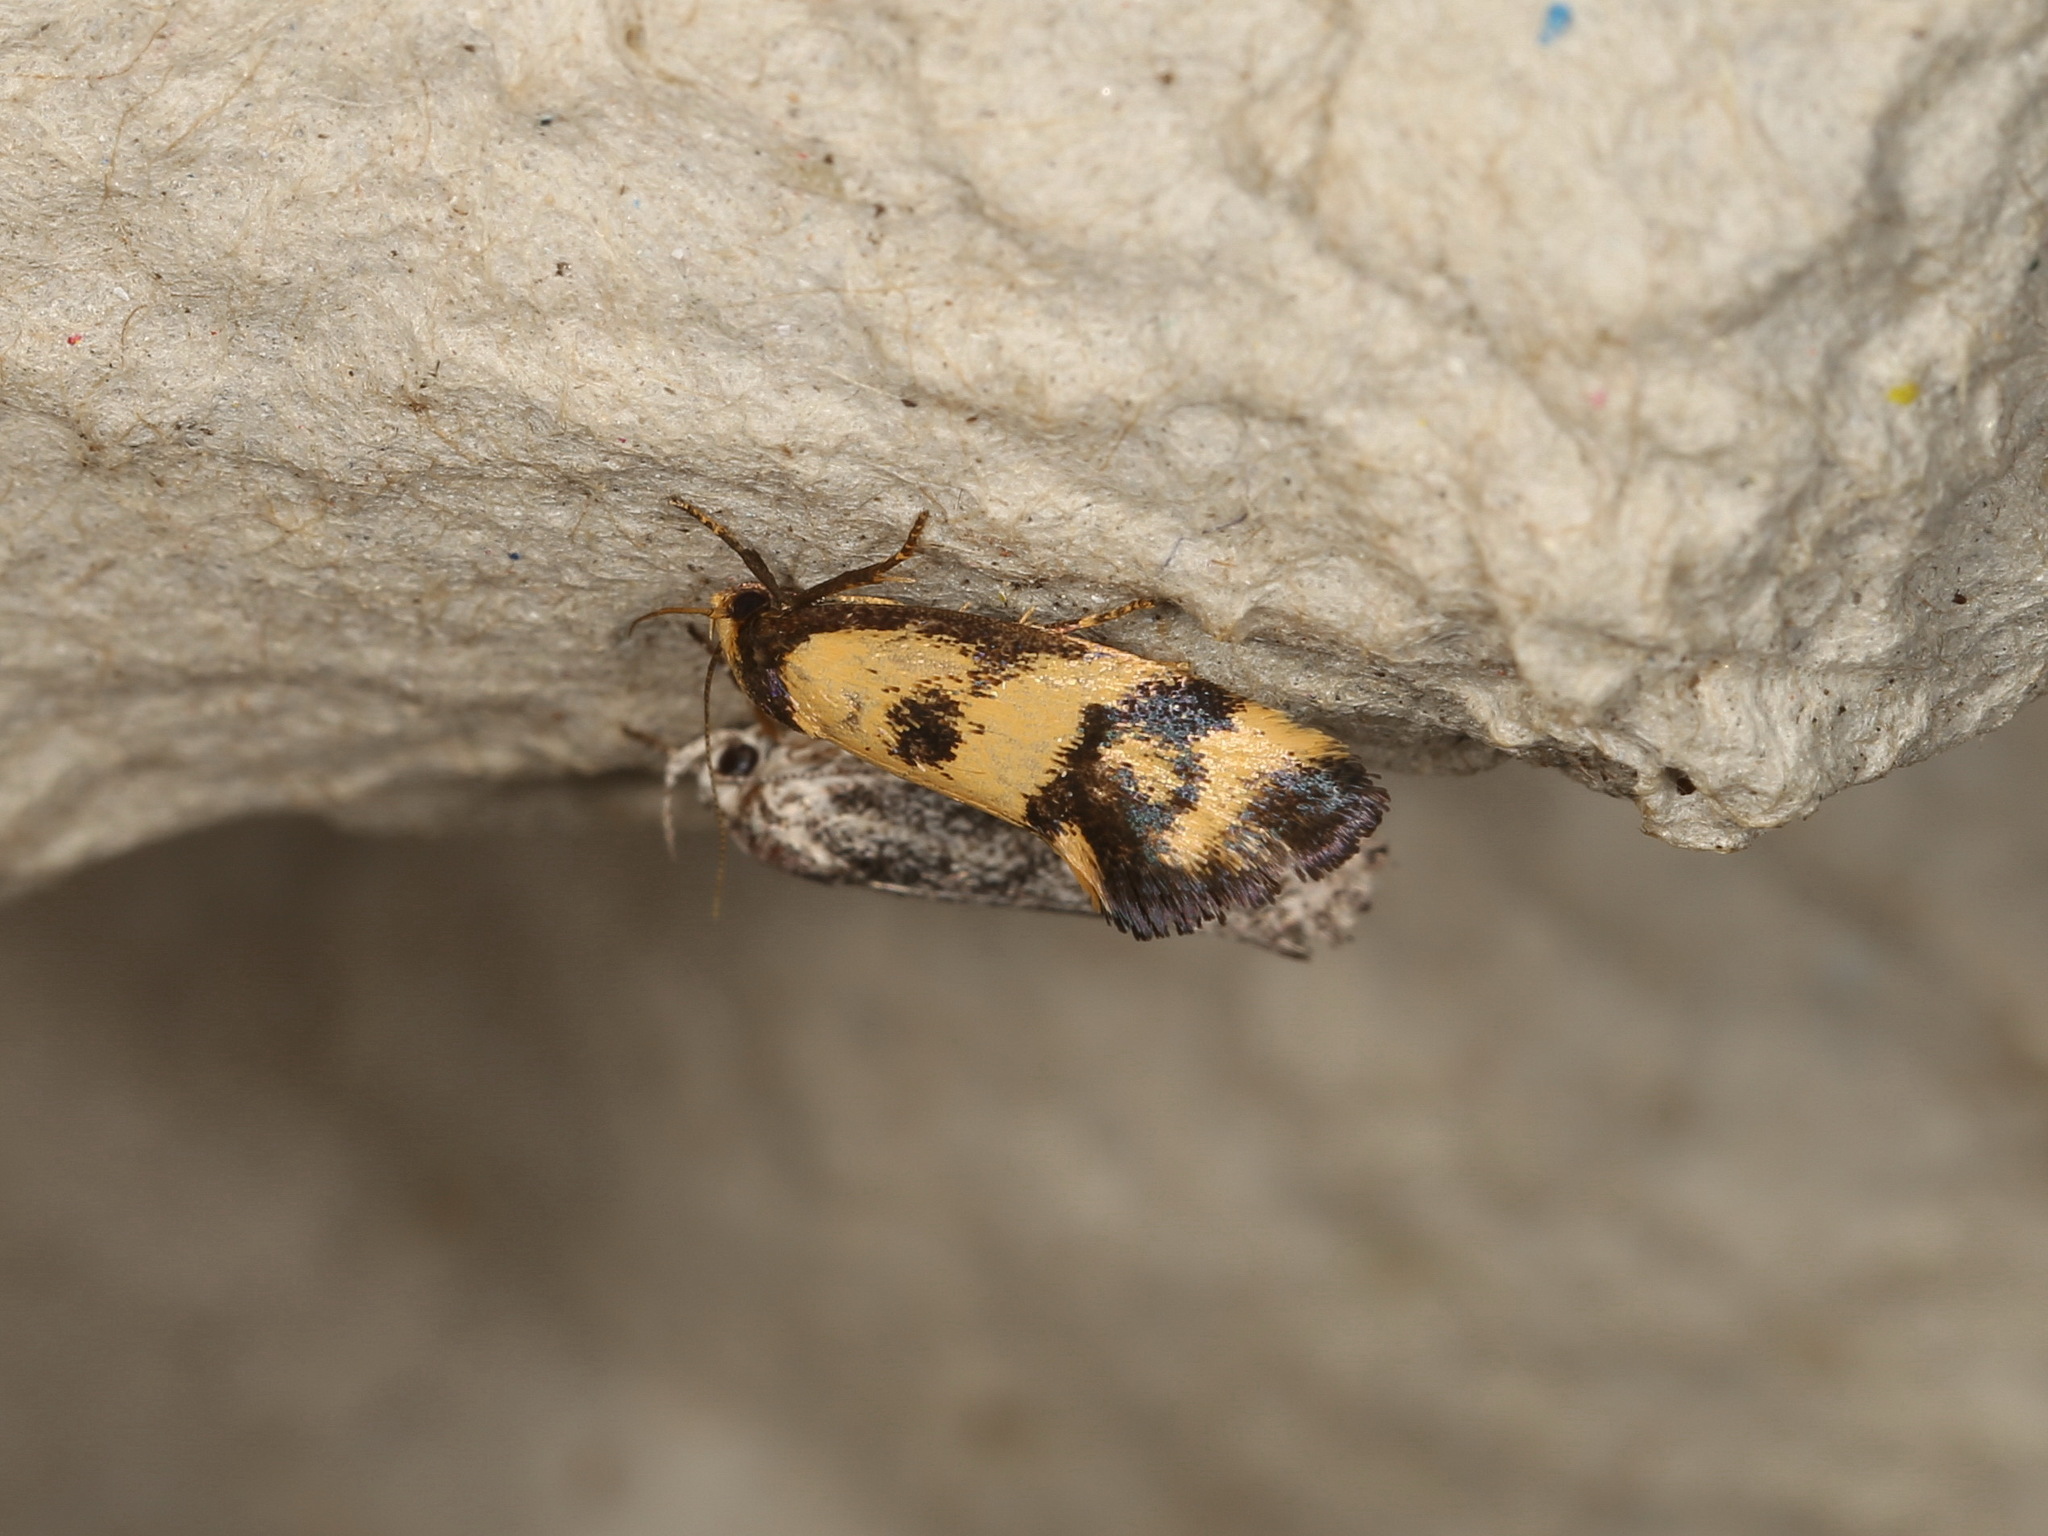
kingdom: Animalia
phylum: Arthropoda
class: Insecta
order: Lepidoptera
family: Oecophoridae
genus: Olbonoma
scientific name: Olbonoma triptycha
